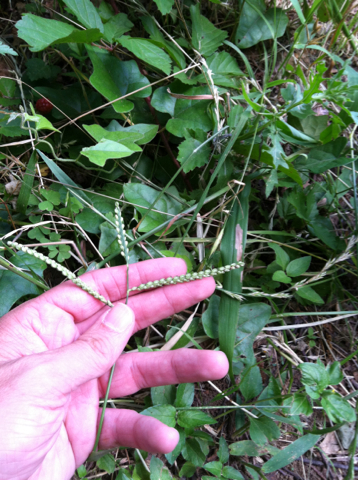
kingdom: Plantae
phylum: Tracheophyta
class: Liliopsida
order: Poales
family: Poaceae
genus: Paspalum
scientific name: Paspalum dilatatum
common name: Dallisgrass
